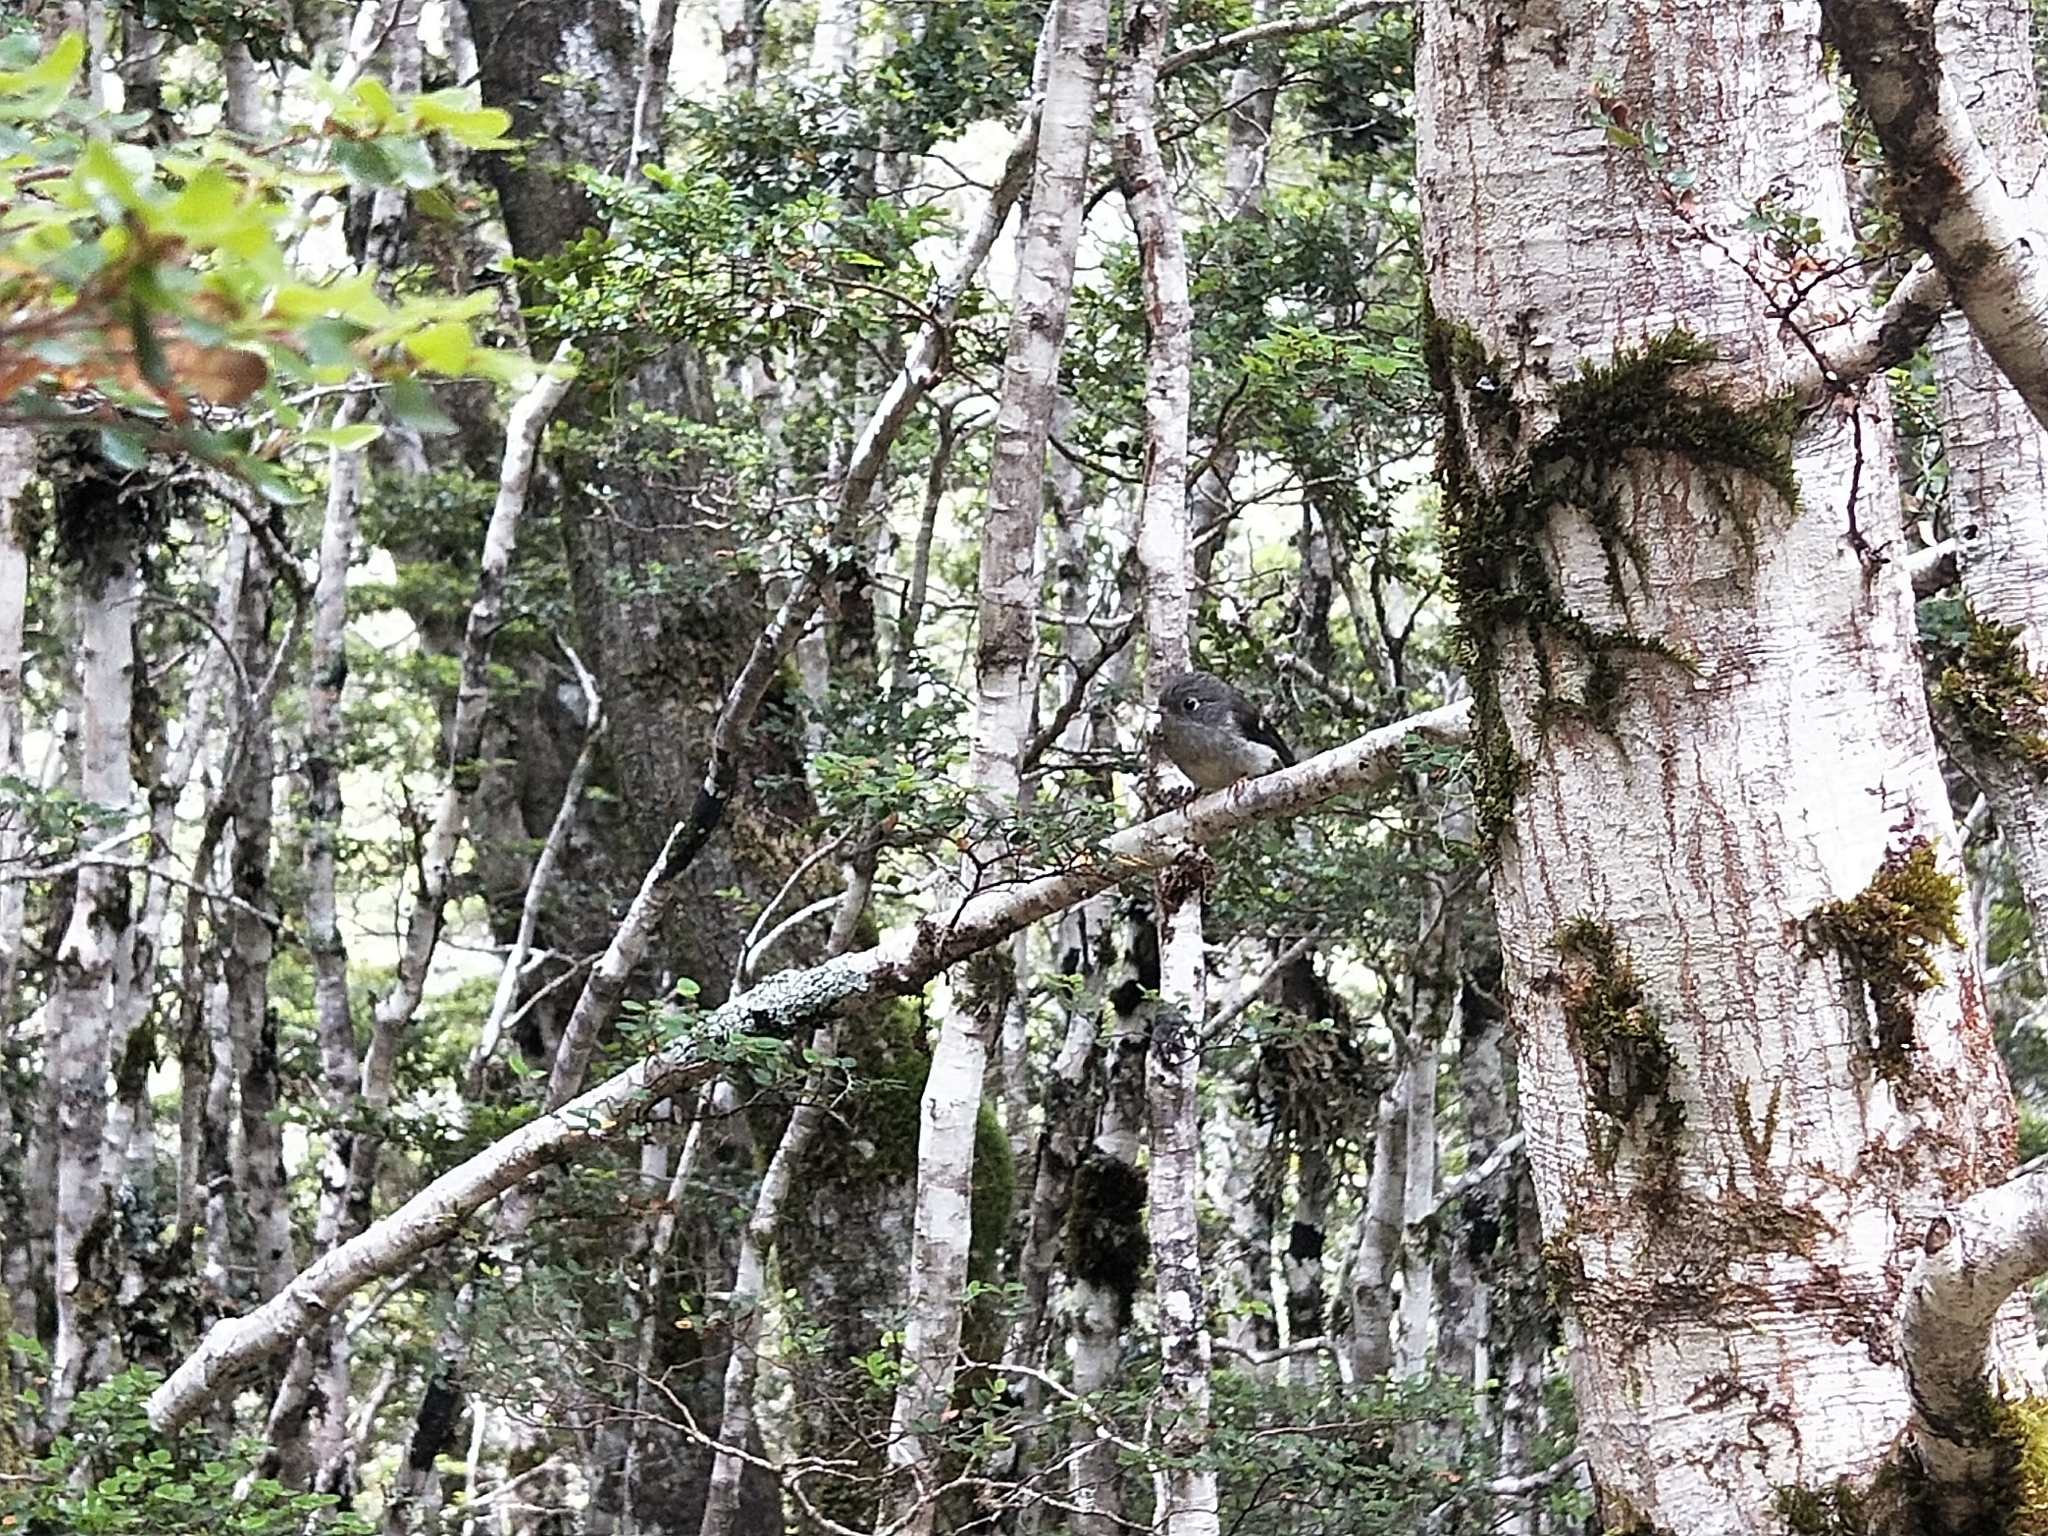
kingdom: Animalia
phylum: Chordata
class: Aves
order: Passeriformes
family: Petroicidae
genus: Petroica
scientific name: Petroica macrocephala
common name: Tomtit
